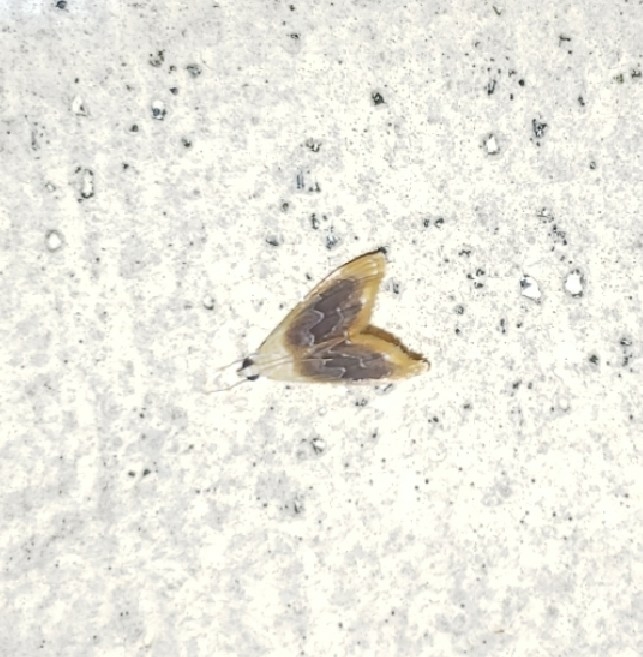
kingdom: Animalia
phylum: Arthropoda
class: Insecta
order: Lepidoptera
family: Crambidae
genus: Glaphyria
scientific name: Glaphyria fulminalis
